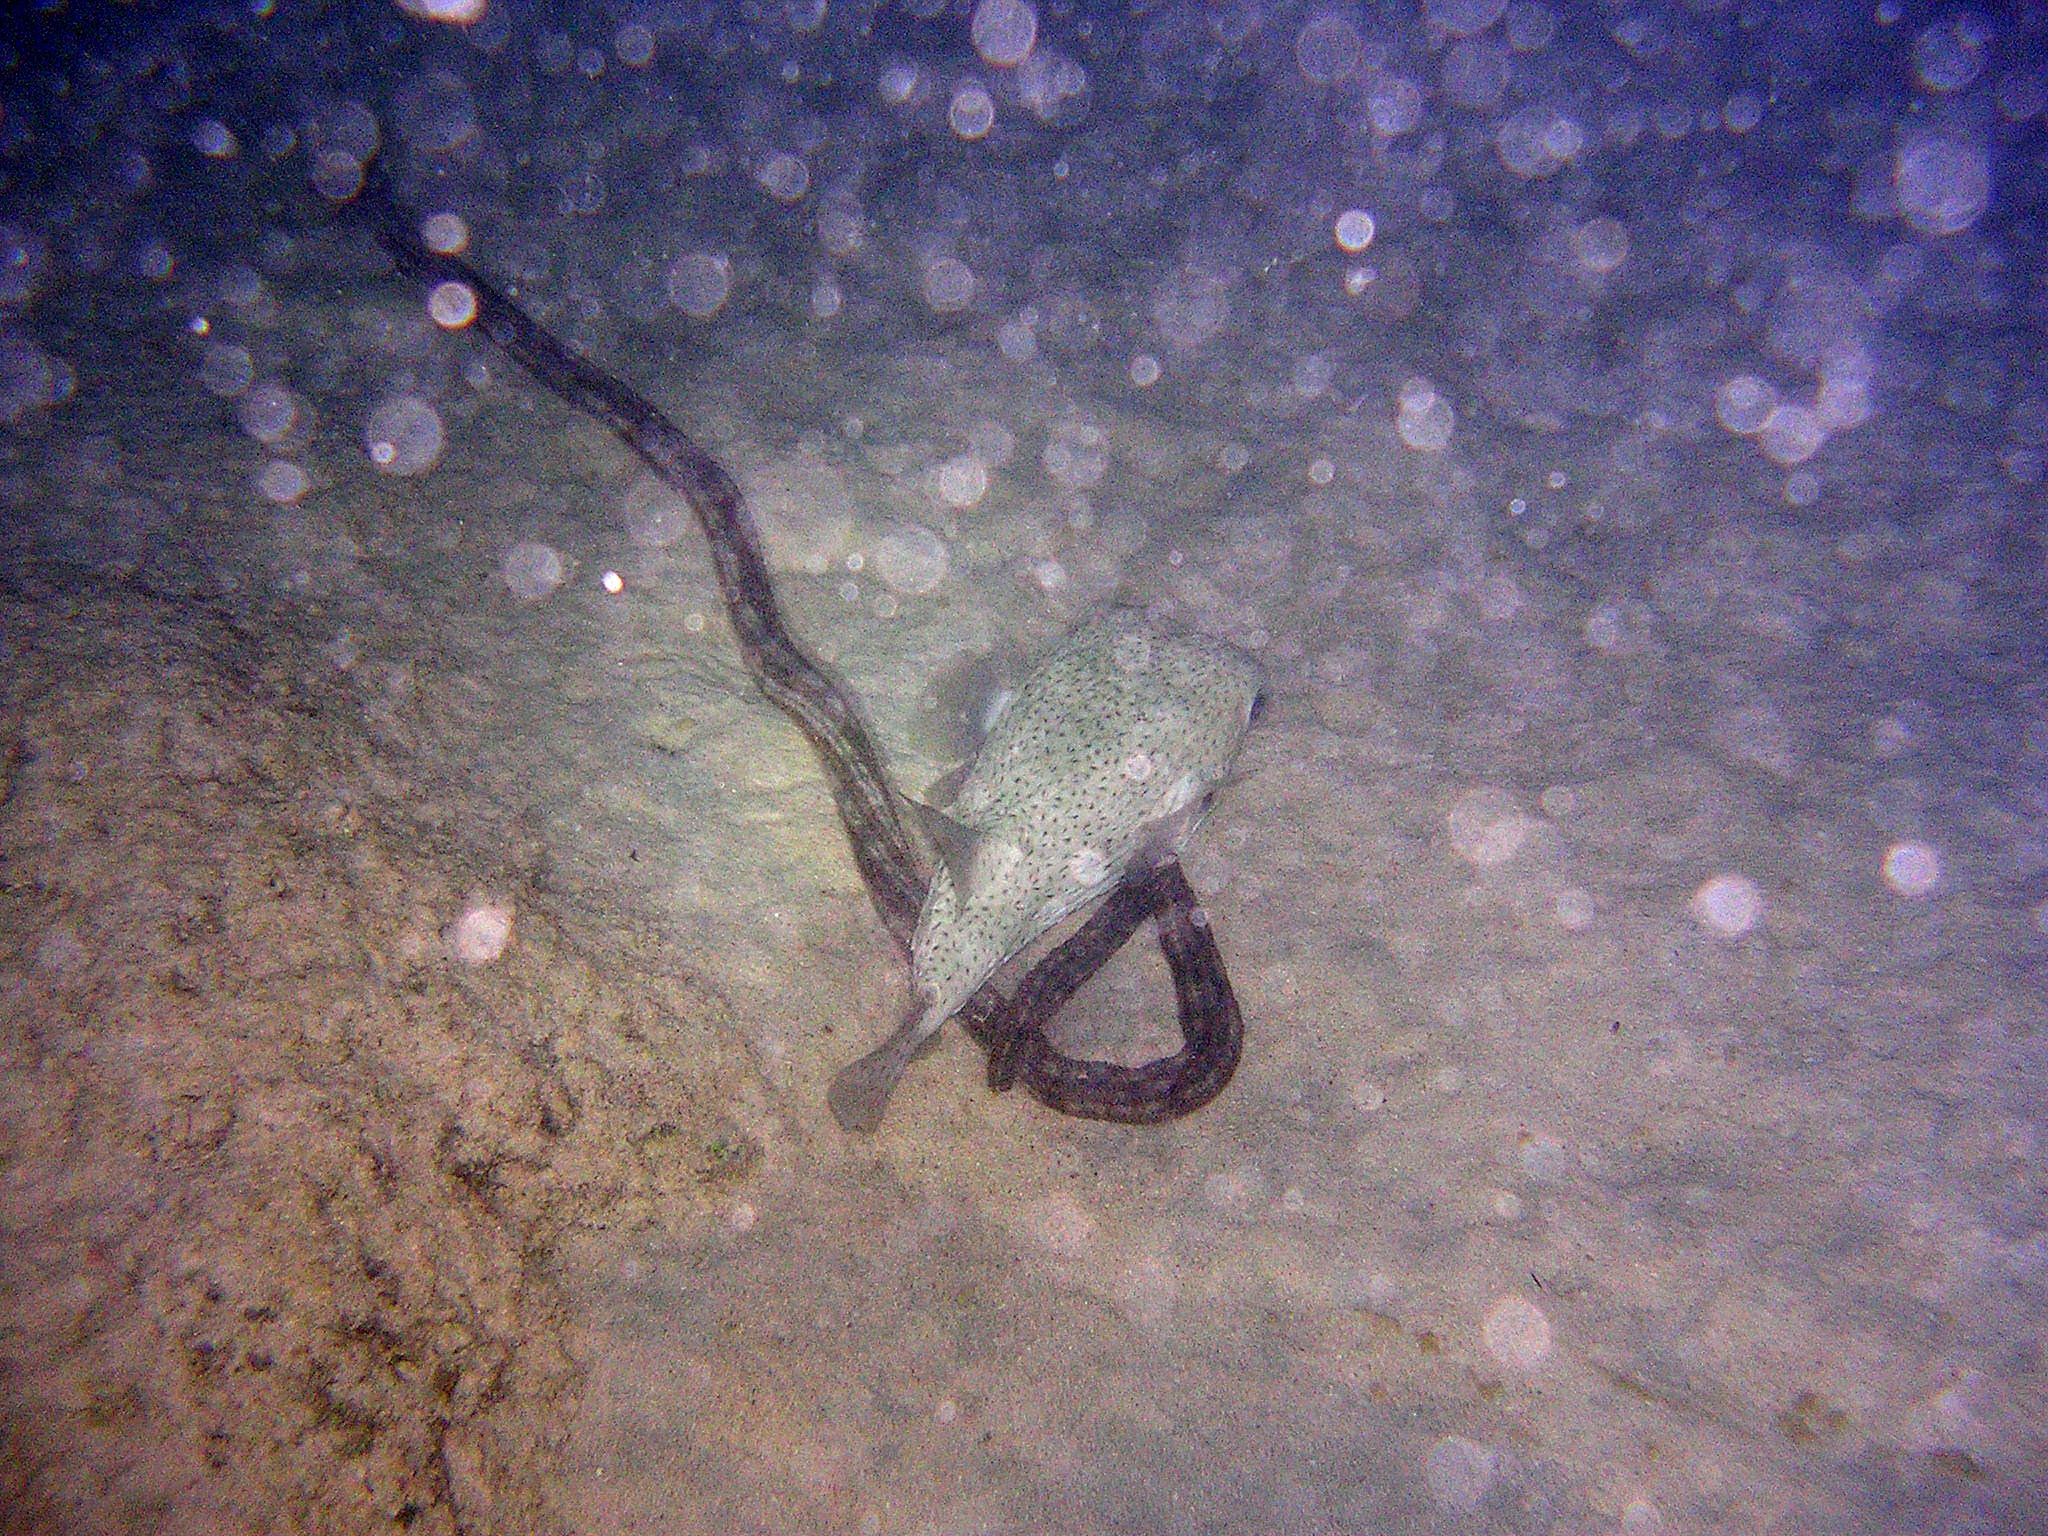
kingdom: Animalia
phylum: Chordata
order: Tetraodontiformes
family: Diodontidae
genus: Diodon
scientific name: Diodon hystrix
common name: Giant porcupinefish
